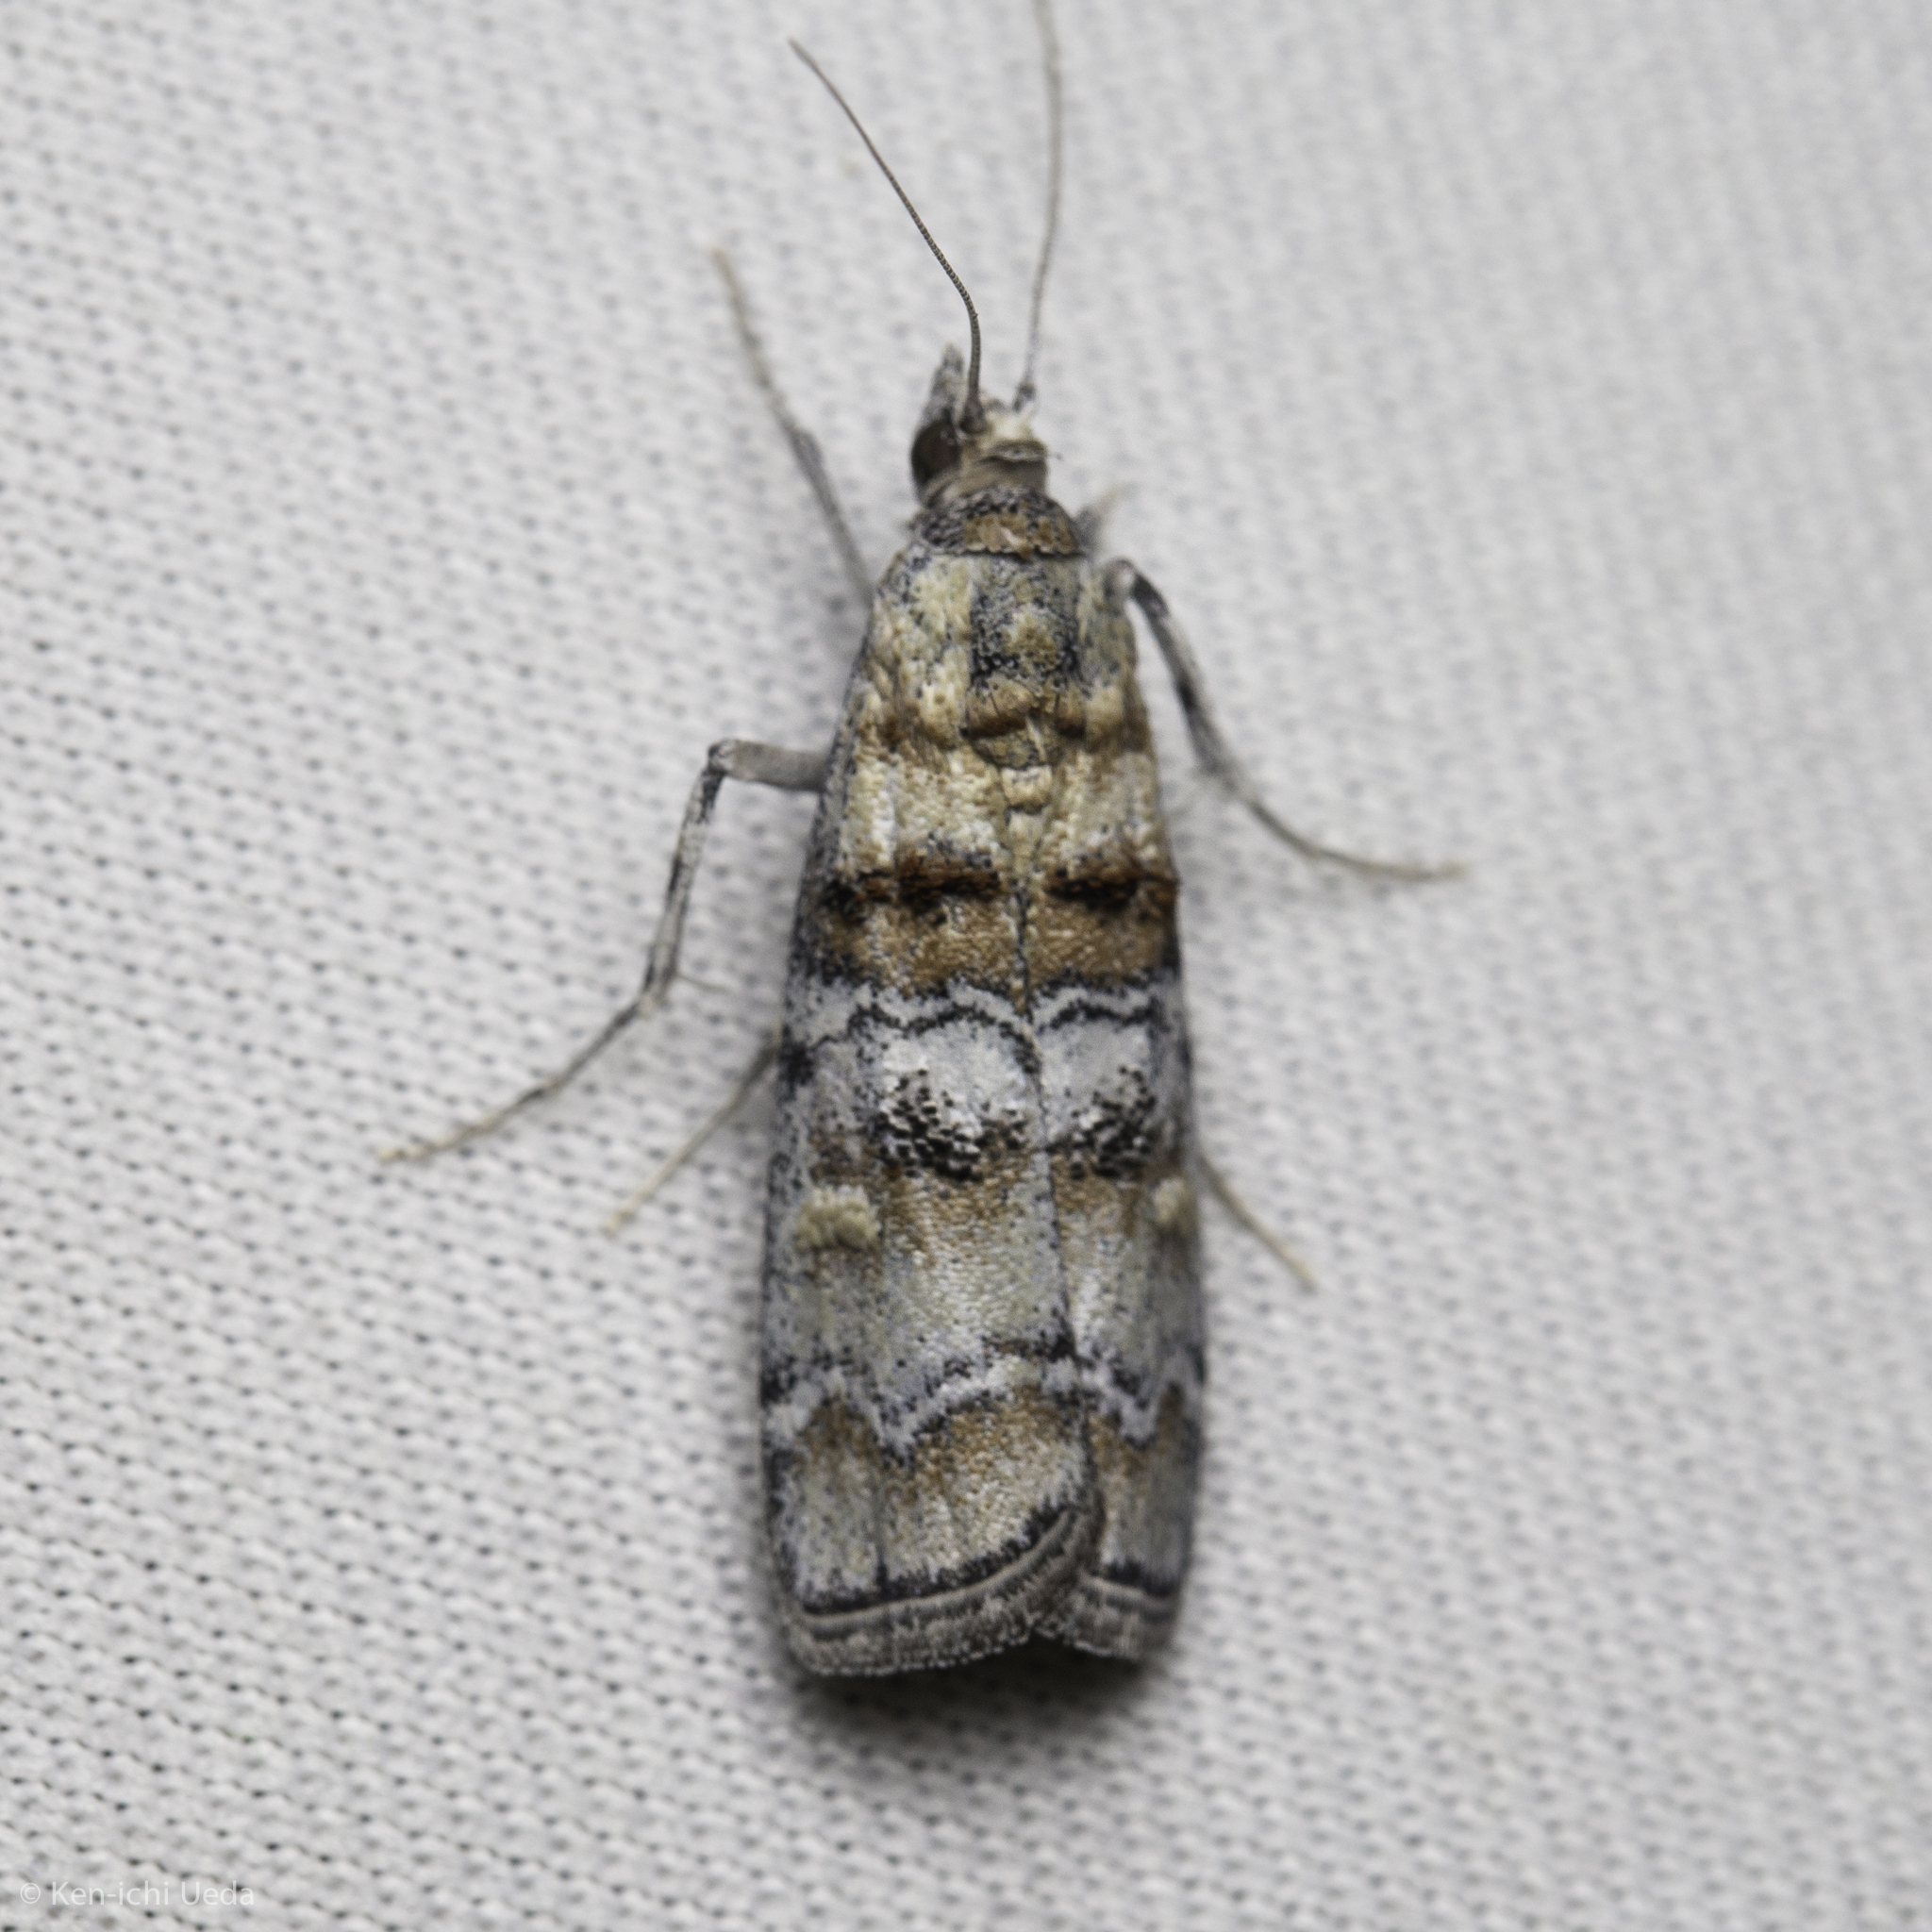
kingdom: Animalia
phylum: Arthropoda
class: Insecta
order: Lepidoptera
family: Pyralidae
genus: Dioryctria
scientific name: Dioryctria fordi
